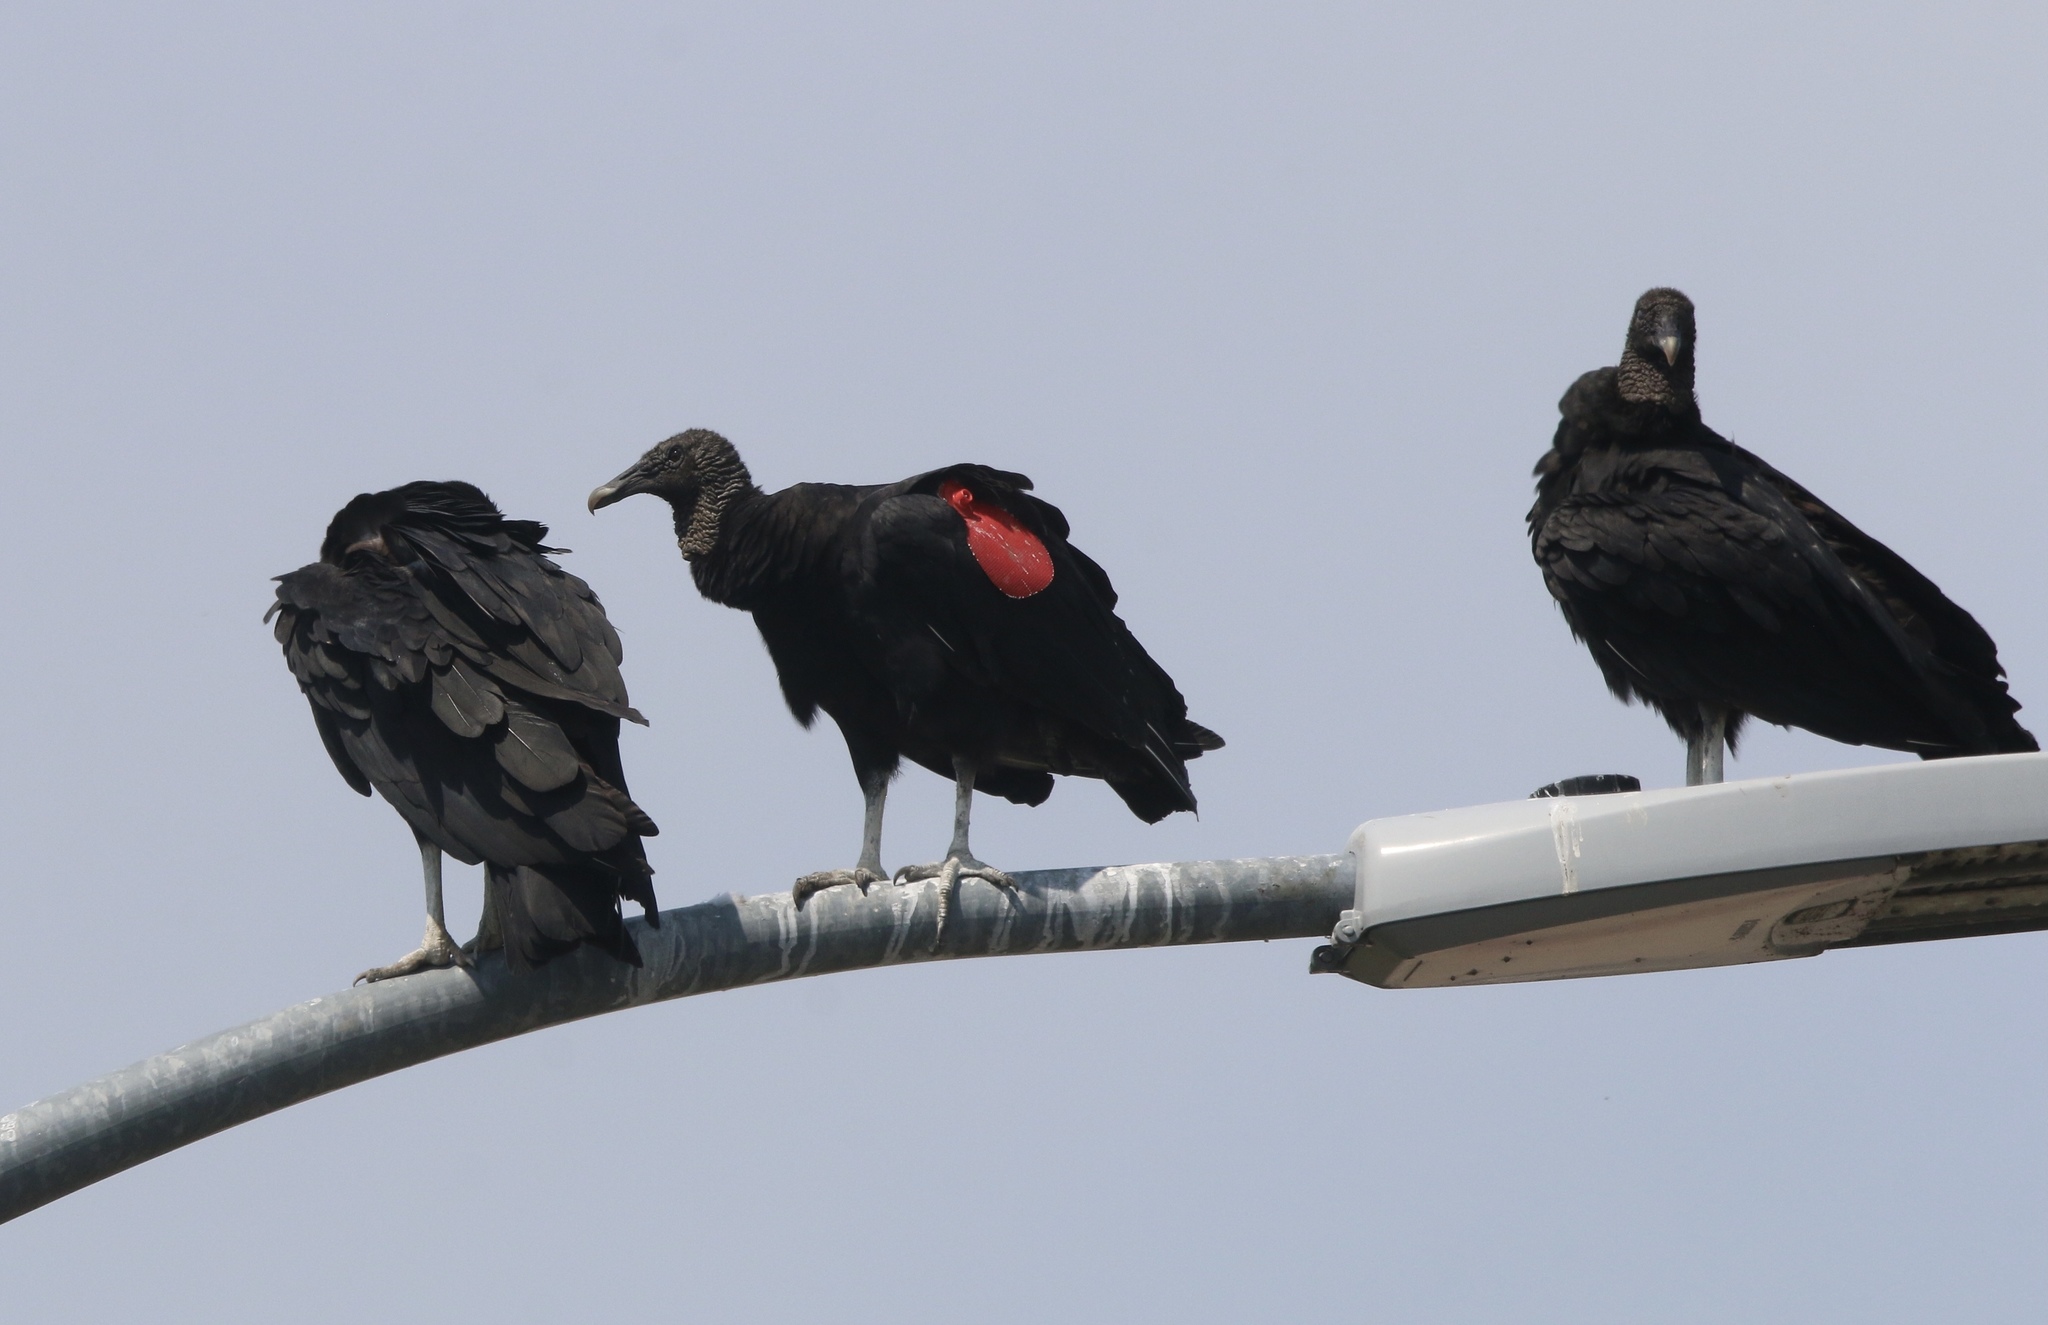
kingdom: Animalia
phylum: Chordata
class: Aves
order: Accipitriformes
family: Cathartidae
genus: Coragyps
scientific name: Coragyps atratus
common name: Black vulture
